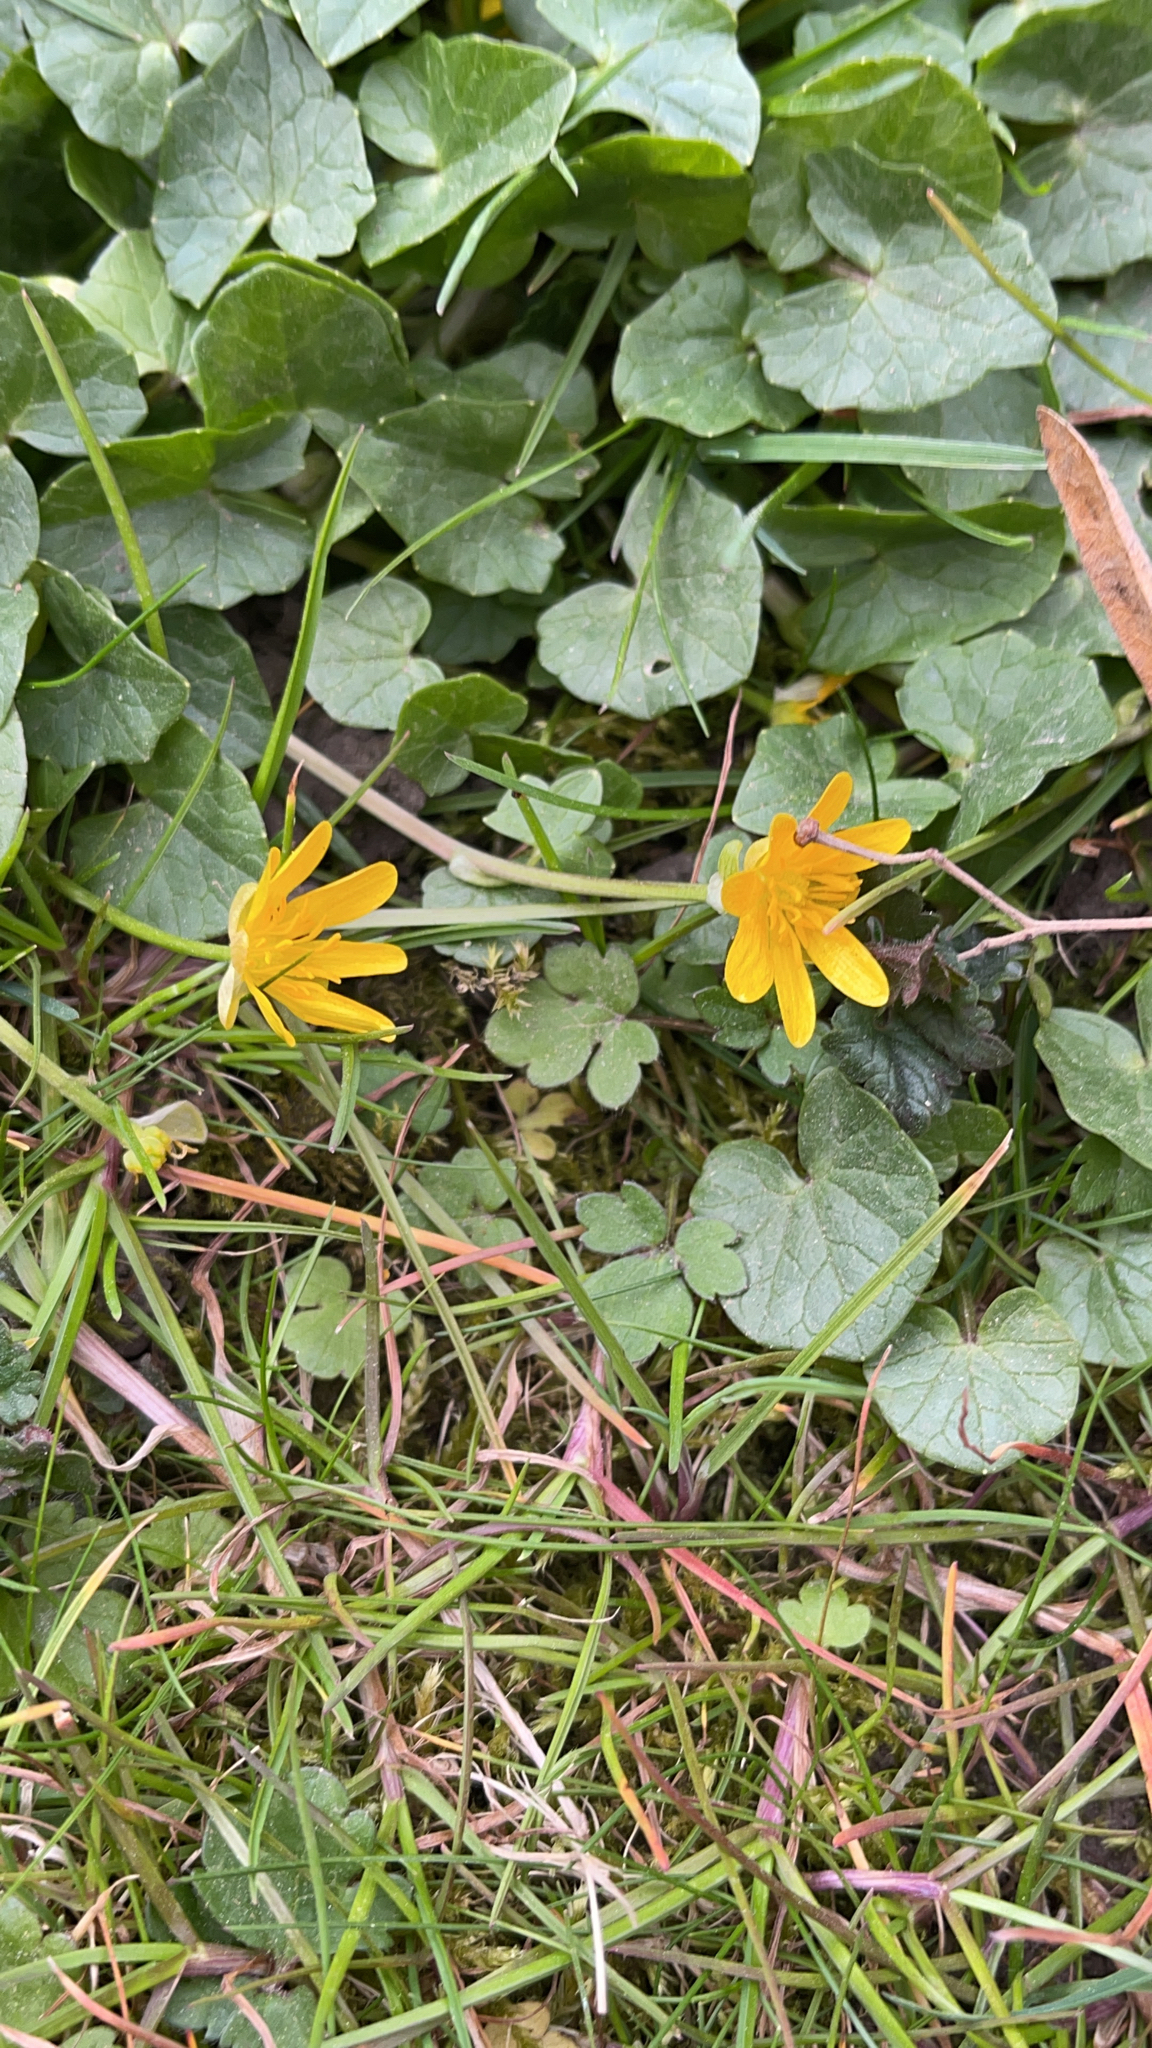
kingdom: Plantae
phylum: Tracheophyta
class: Magnoliopsida
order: Ranunculales
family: Ranunculaceae
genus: Ficaria
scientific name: Ficaria verna
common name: Lesser celandine
